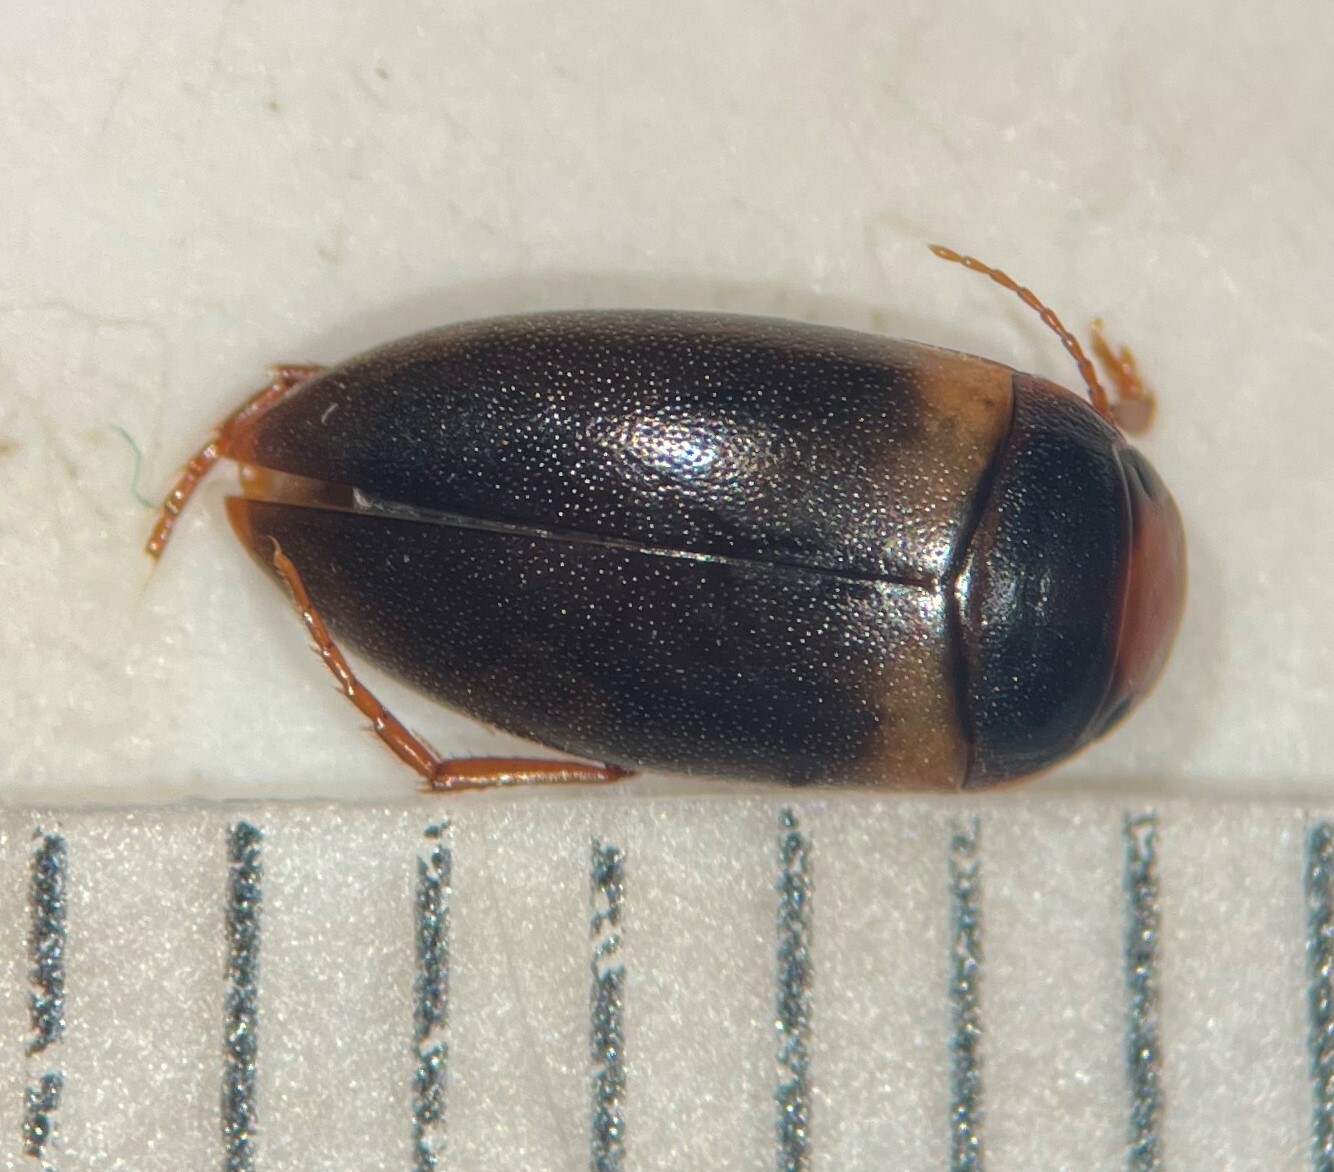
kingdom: Animalia
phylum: Arthropoda
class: Insecta
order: Coleoptera
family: Dytiscidae
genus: Laccornis
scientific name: Laccornis latens
